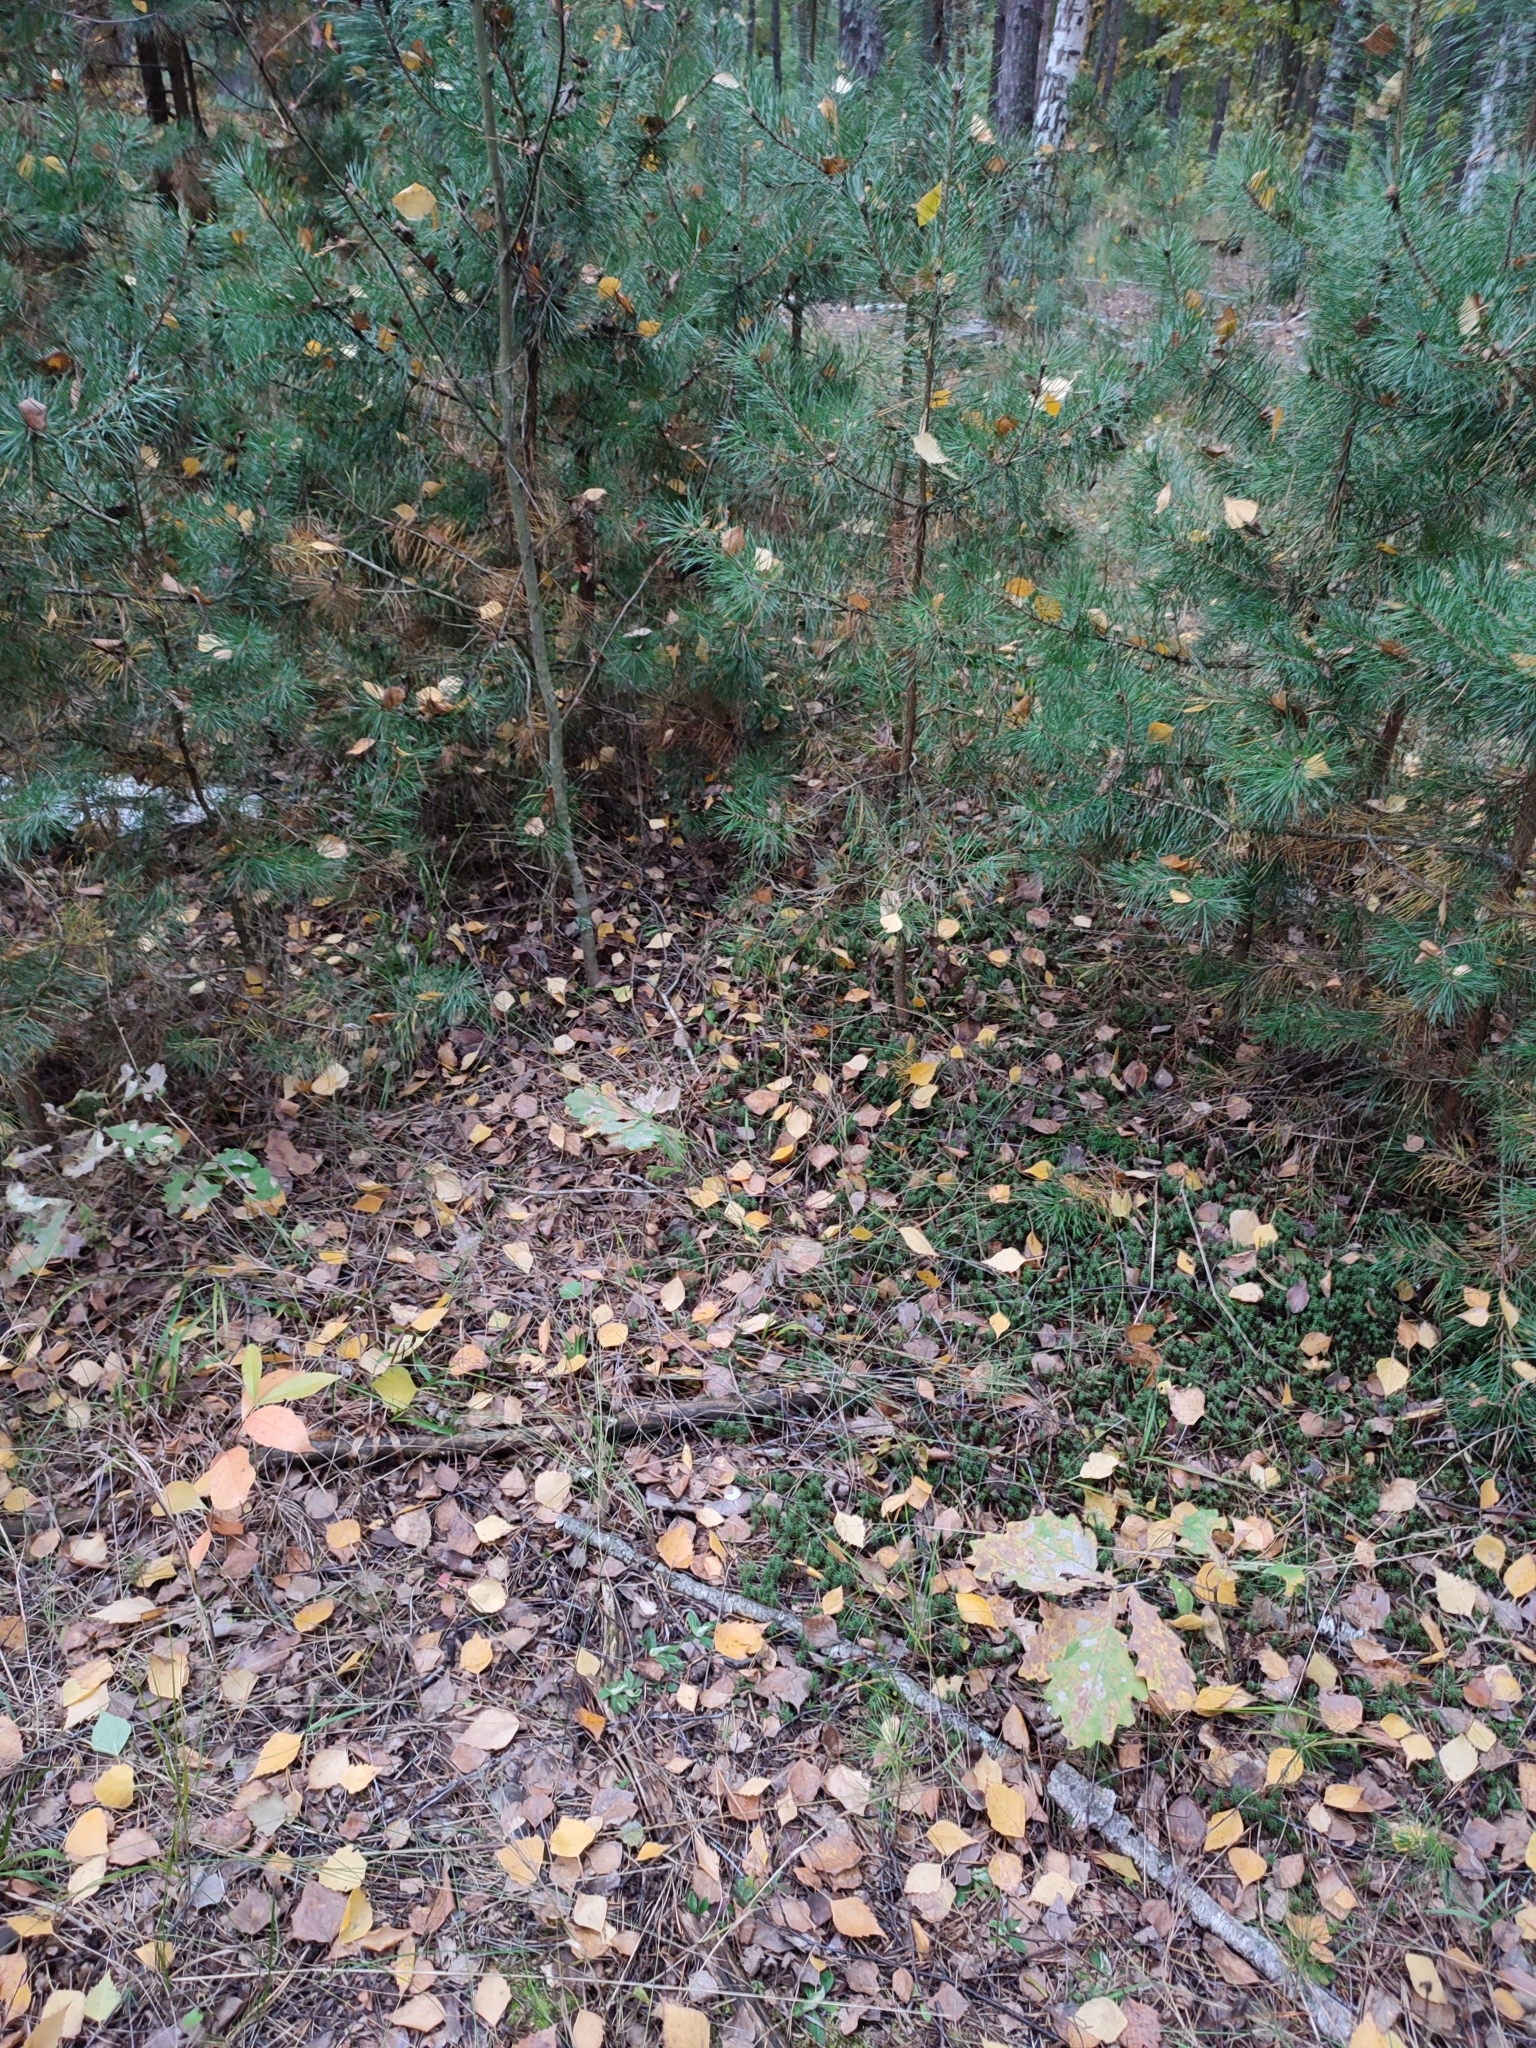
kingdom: Plantae
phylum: Tracheophyta
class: Magnoliopsida
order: Fagales
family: Fagaceae
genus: Quercus
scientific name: Quercus robur
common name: Pedunculate oak
